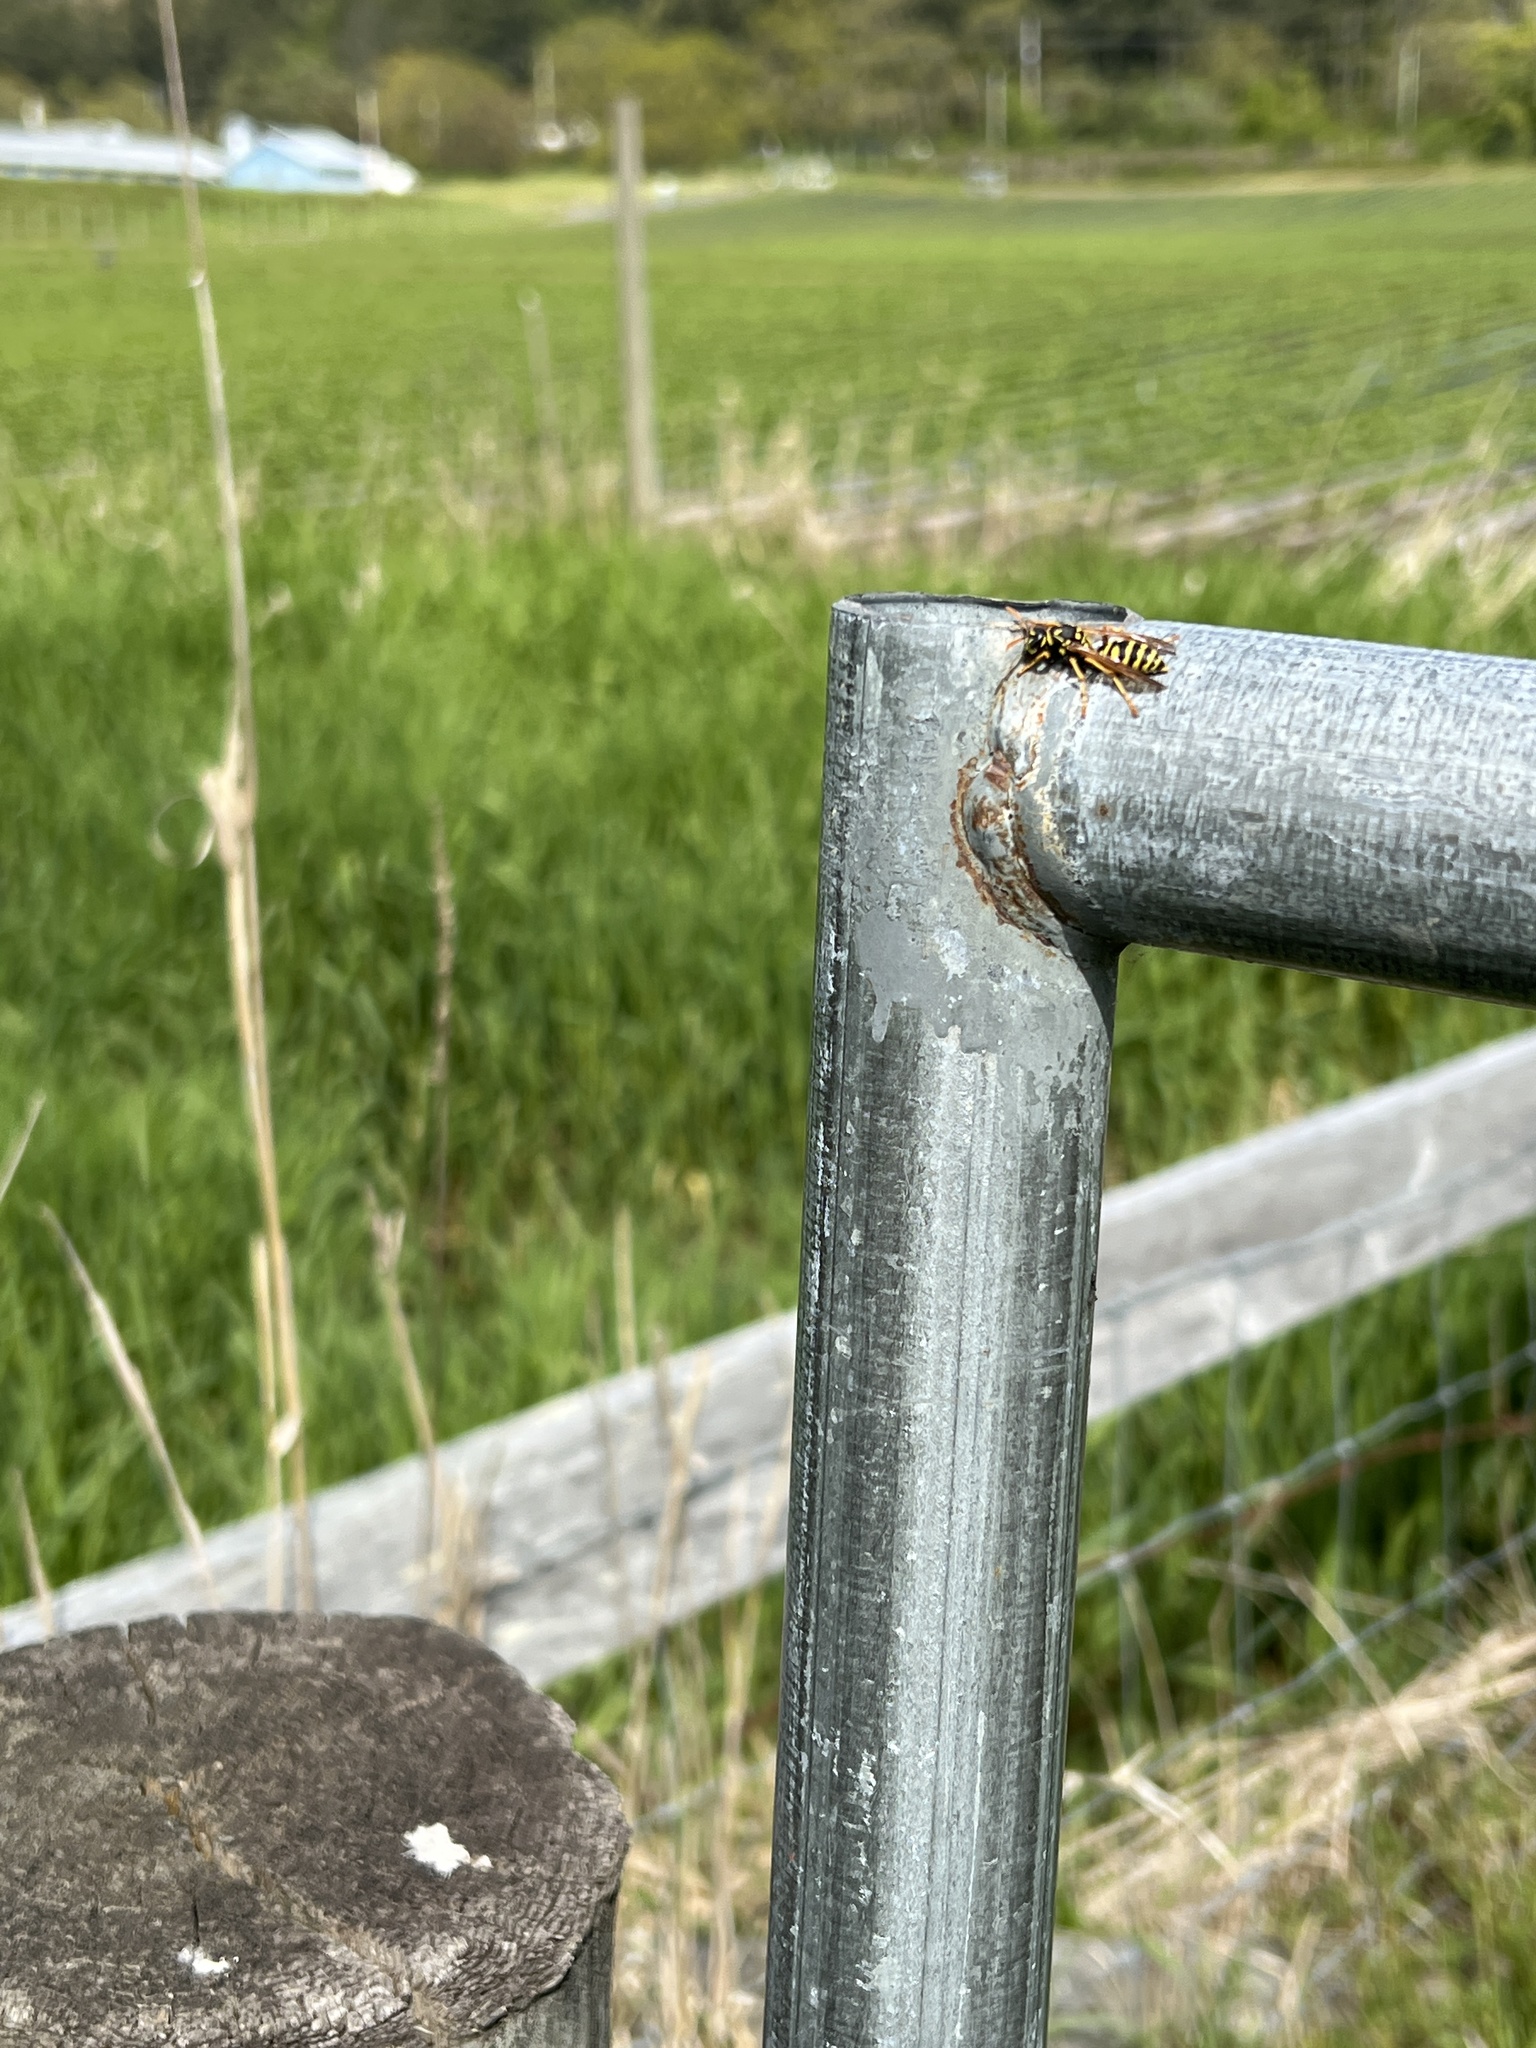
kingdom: Animalia
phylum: Arthropoda
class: Insecta
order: Hymenoptera
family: Eumenidae
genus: Polistes
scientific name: Polistes dominula
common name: Paper wasp
